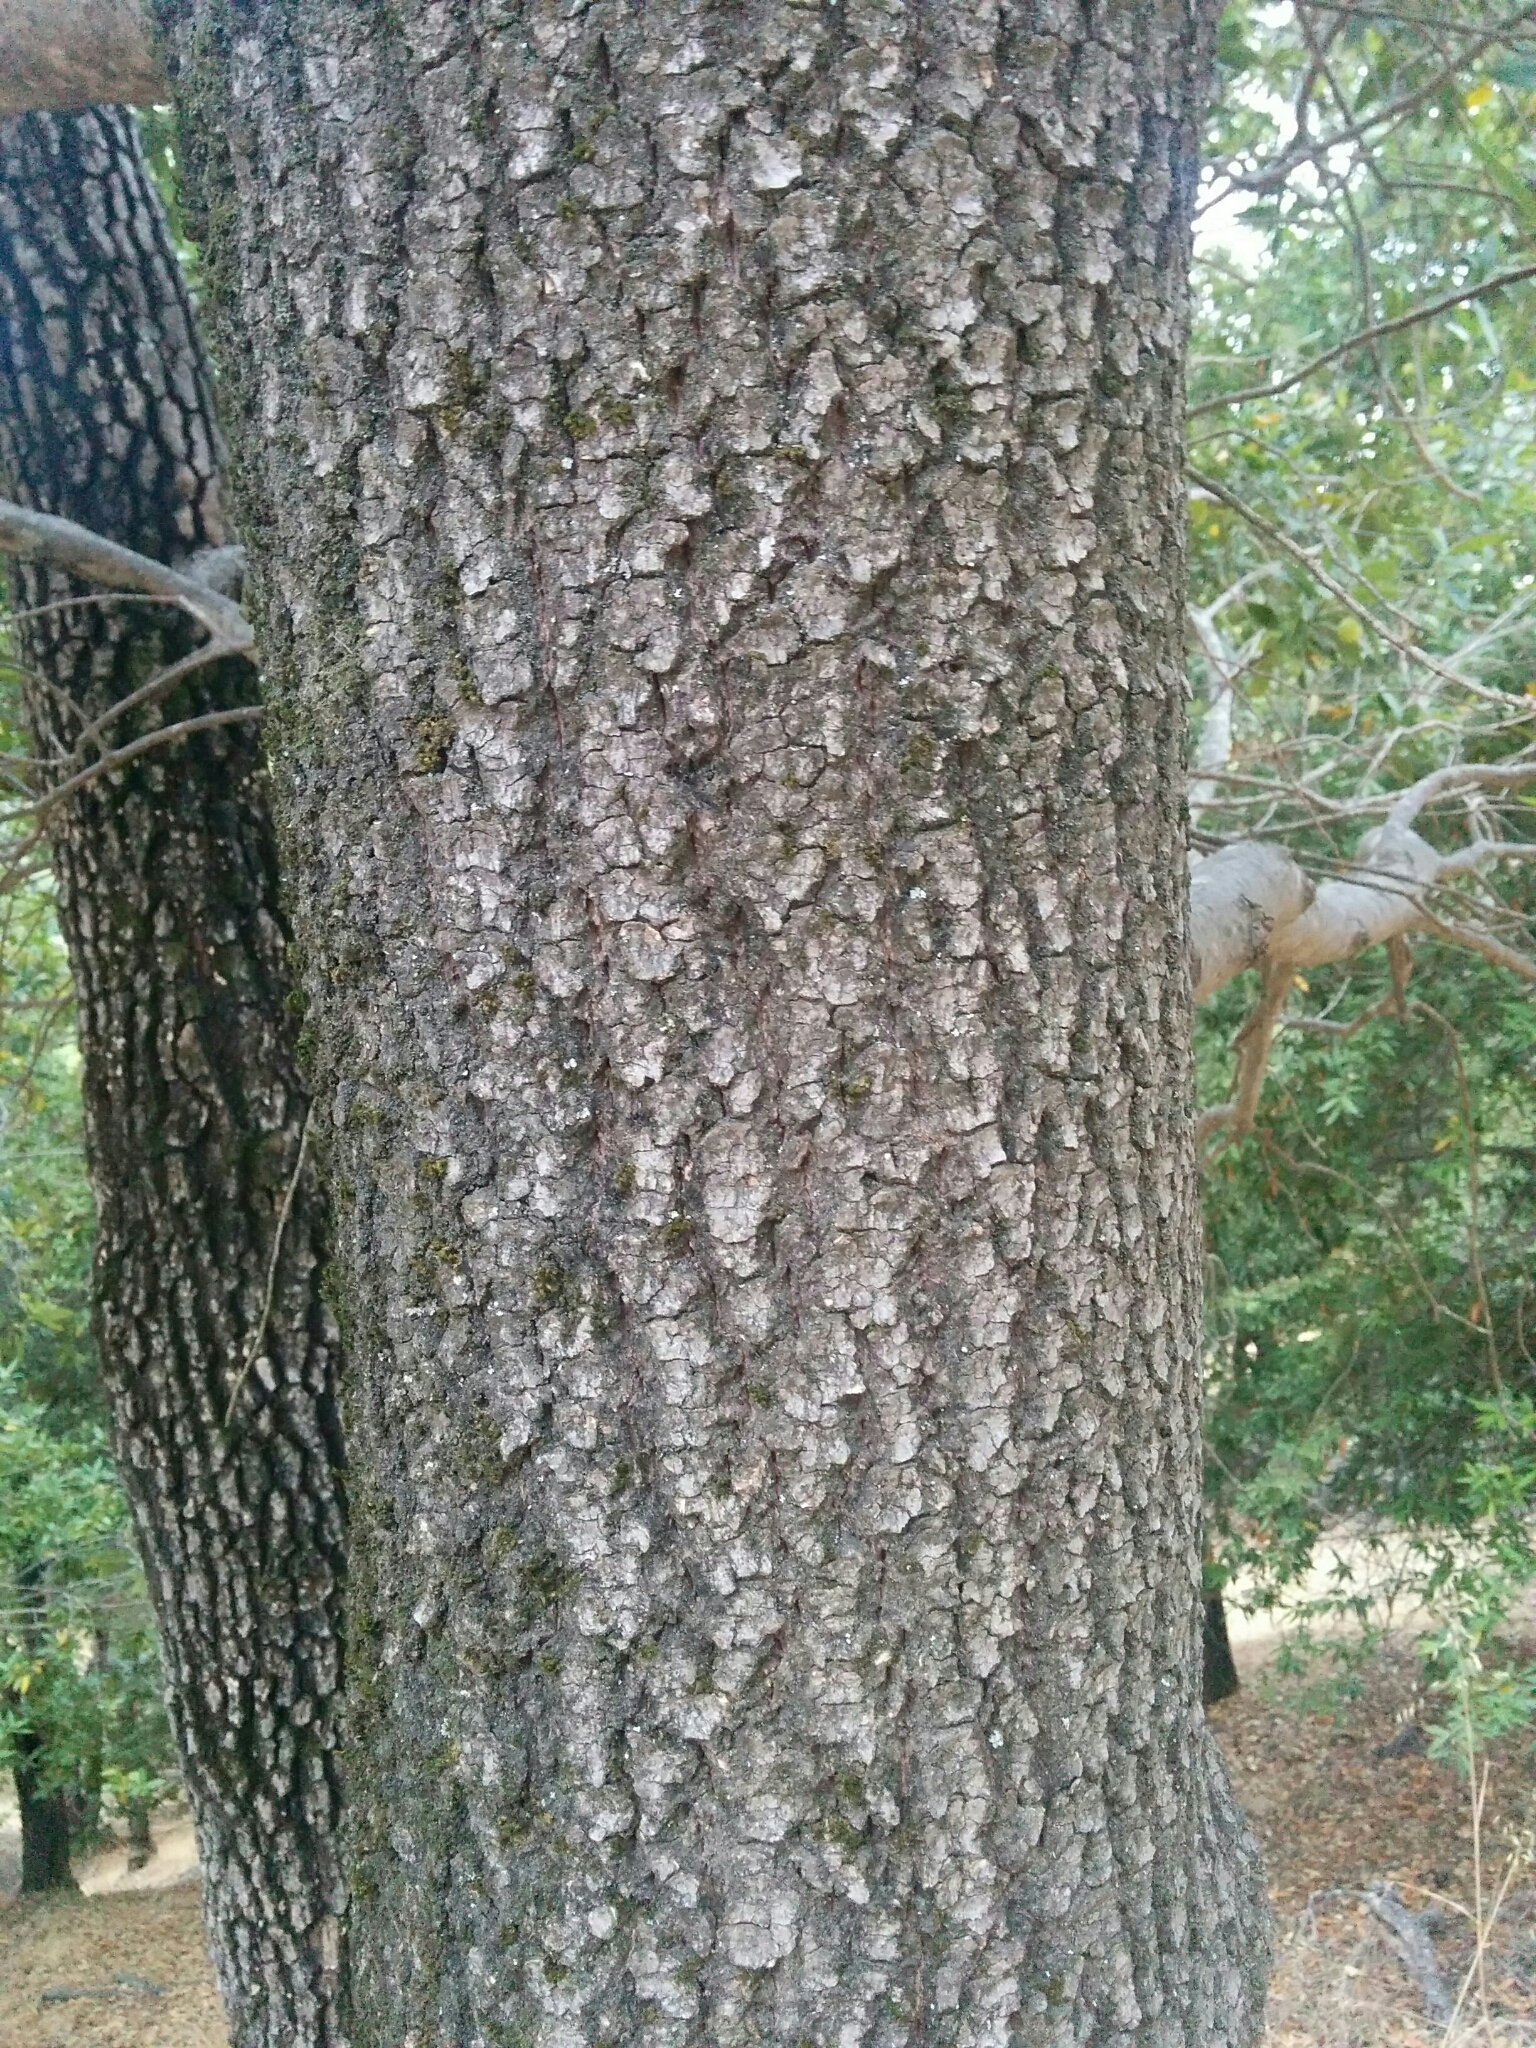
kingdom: Plantae
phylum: Tracheophyta
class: Magnoliopsida
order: Laurales
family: Lauraceae
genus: Umbellularia
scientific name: Umbellularia californica
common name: California bay
